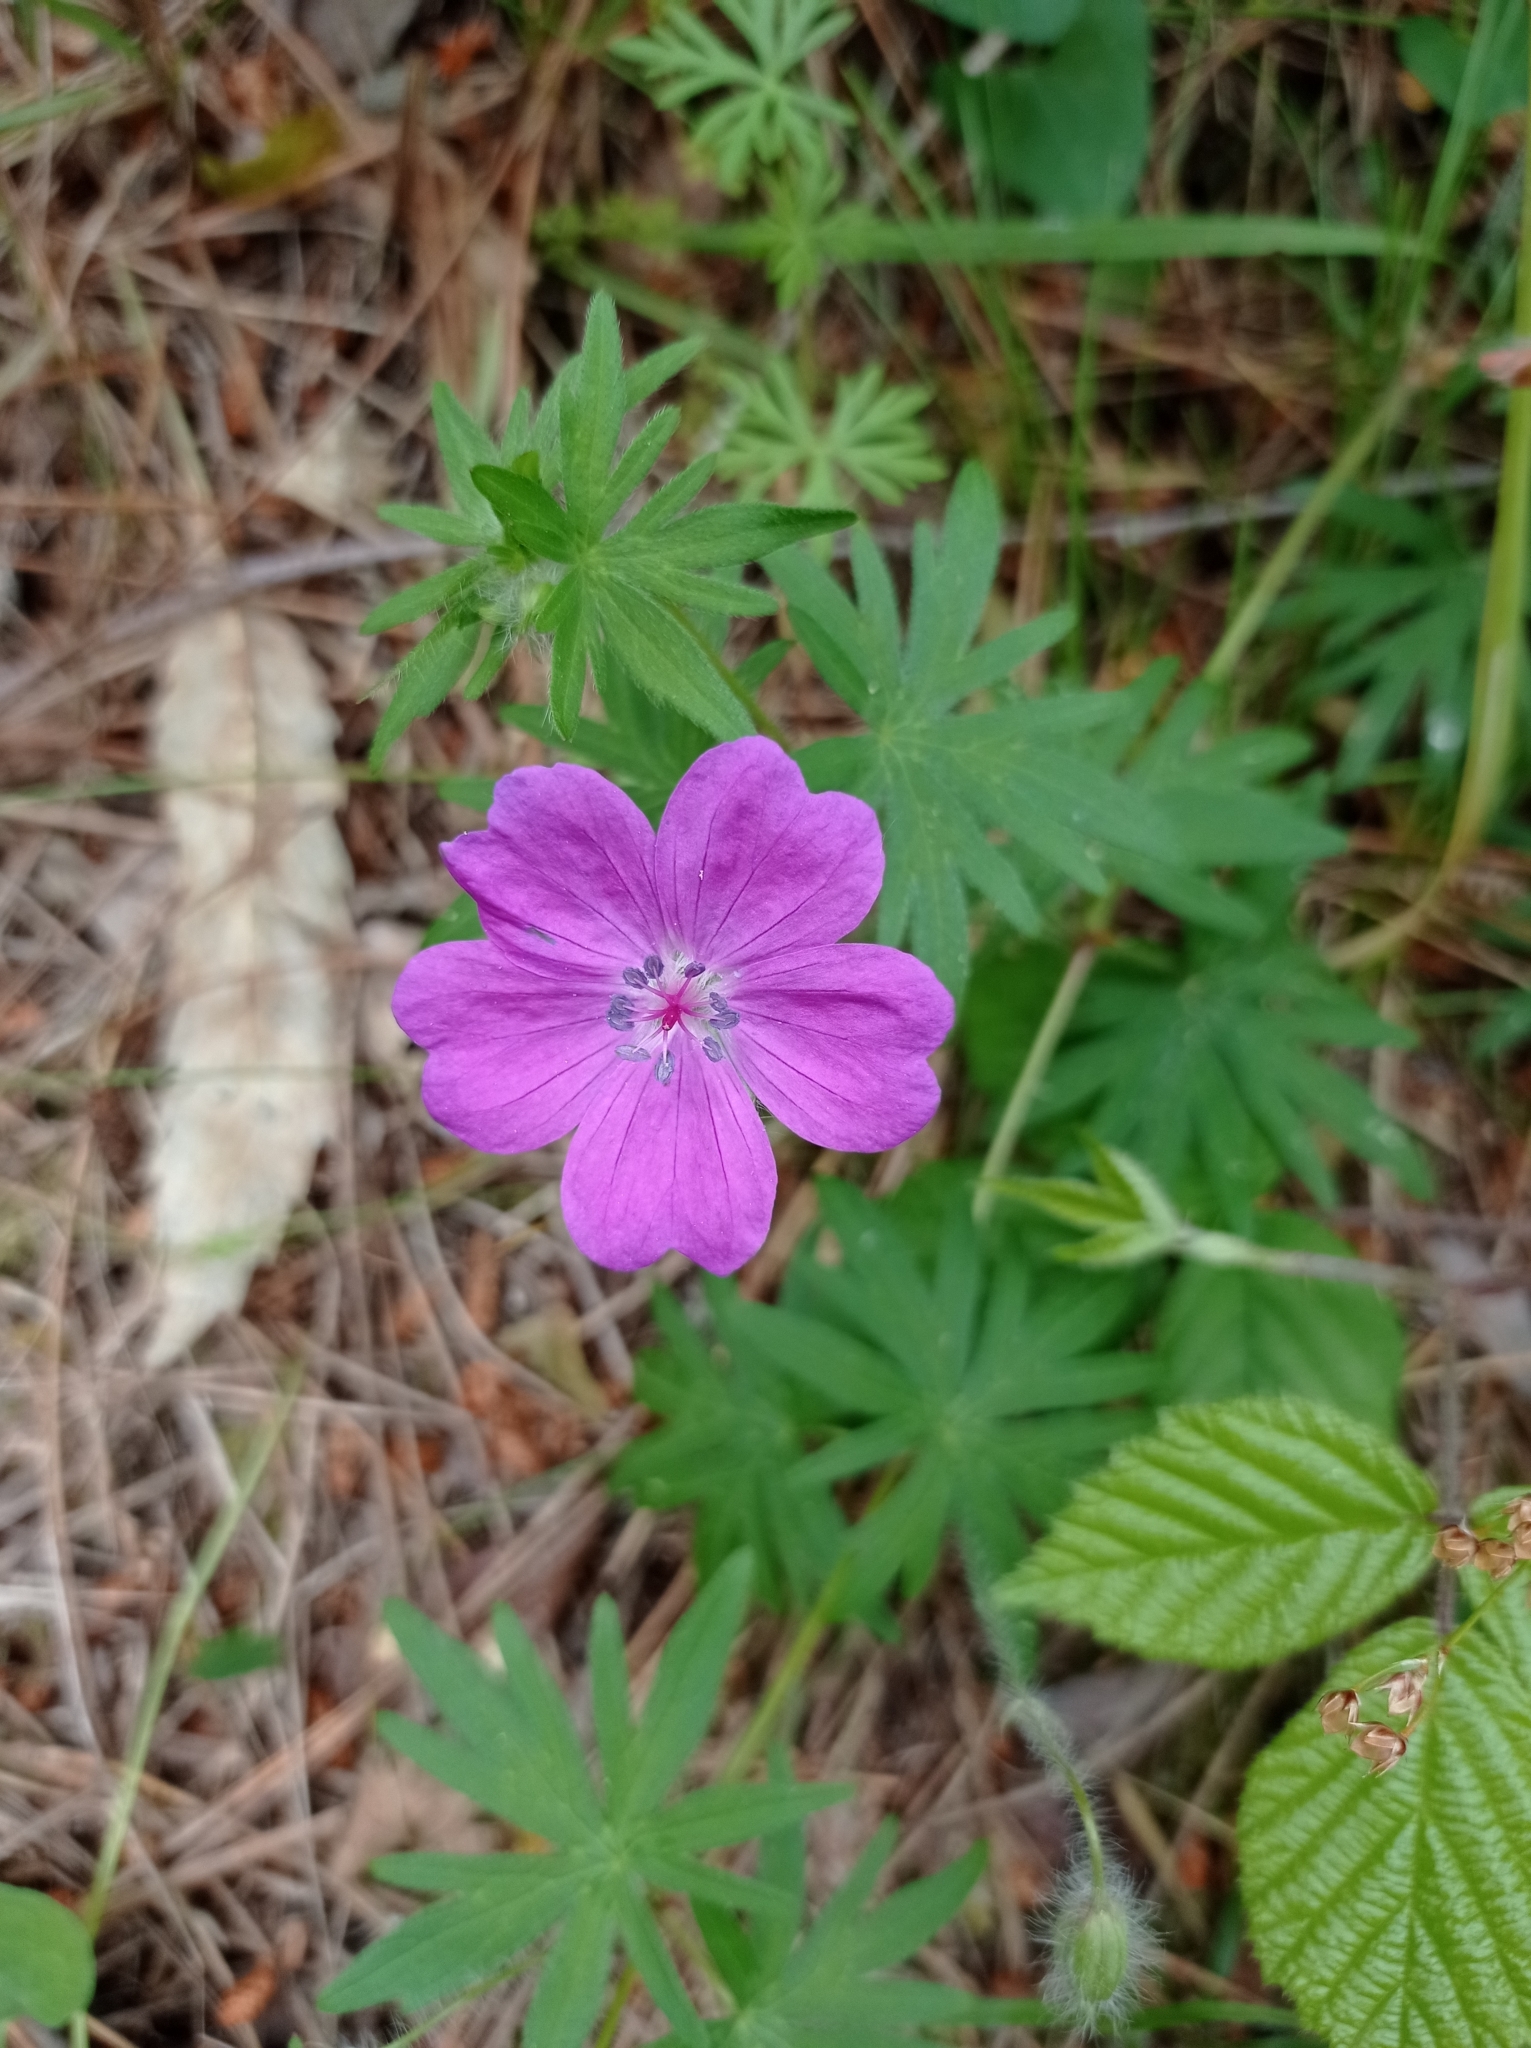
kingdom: Plantae
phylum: Tracheophyta
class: Magnoliopsida
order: Geraniales
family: Geraniaceae
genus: Geranium
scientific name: Geranium sanguineum
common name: Bloody crane's-bill
